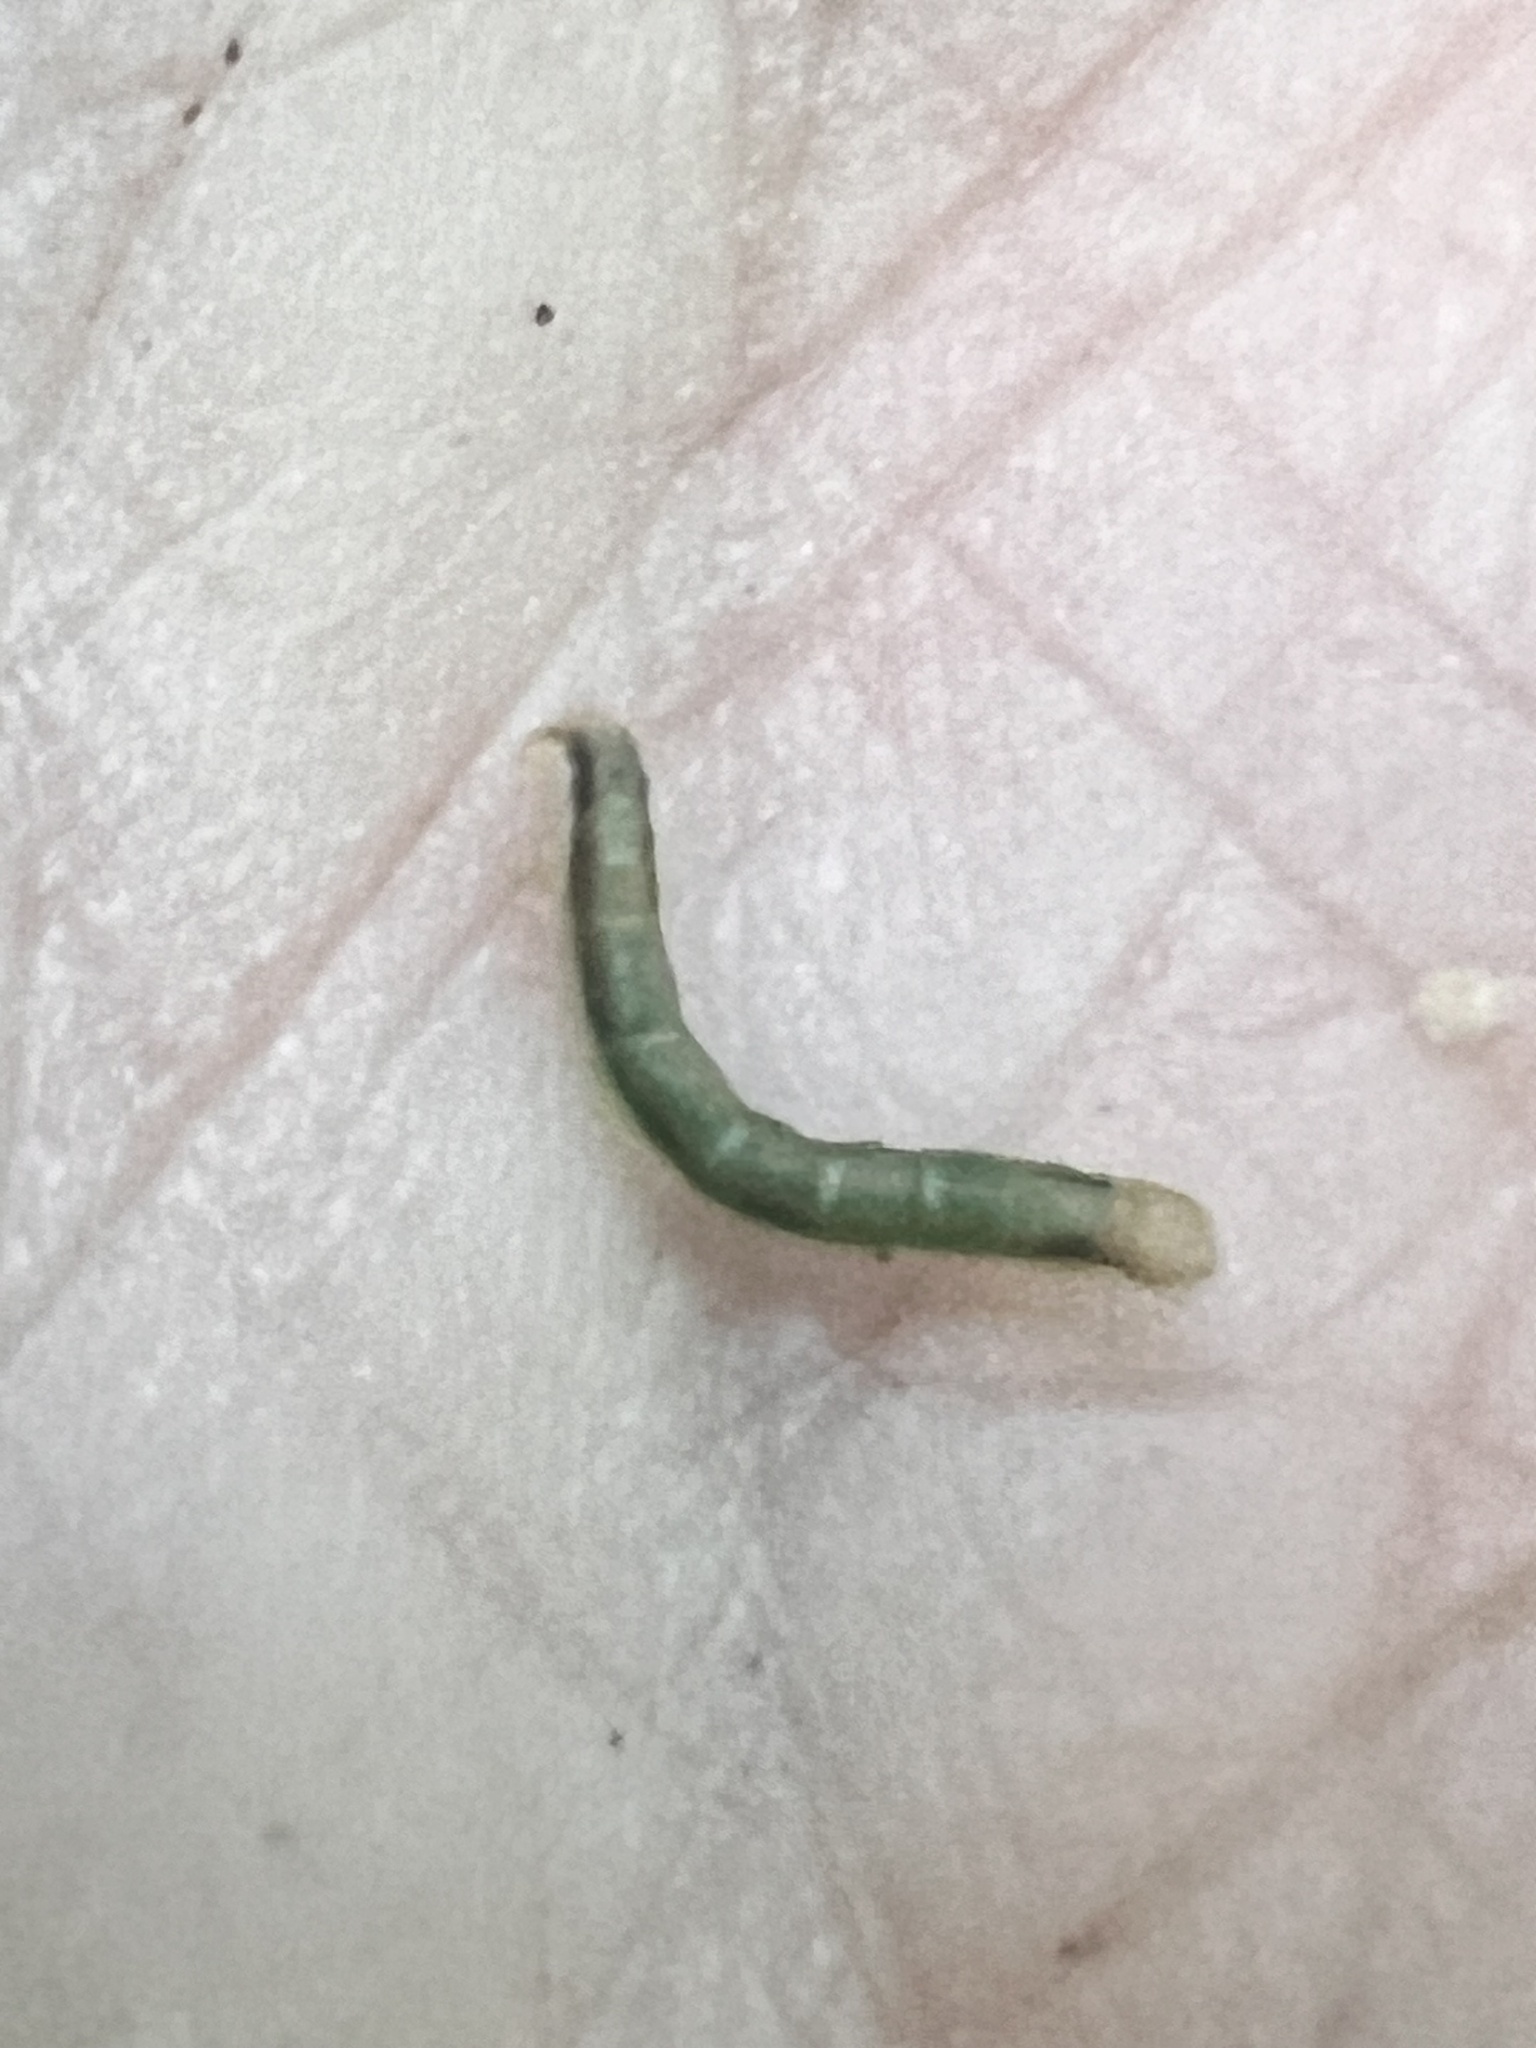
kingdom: Animalia
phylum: Arthropoda
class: Insecta
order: Lepidoptera
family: Geometridae
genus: Cleora
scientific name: Cleora scriptaria
